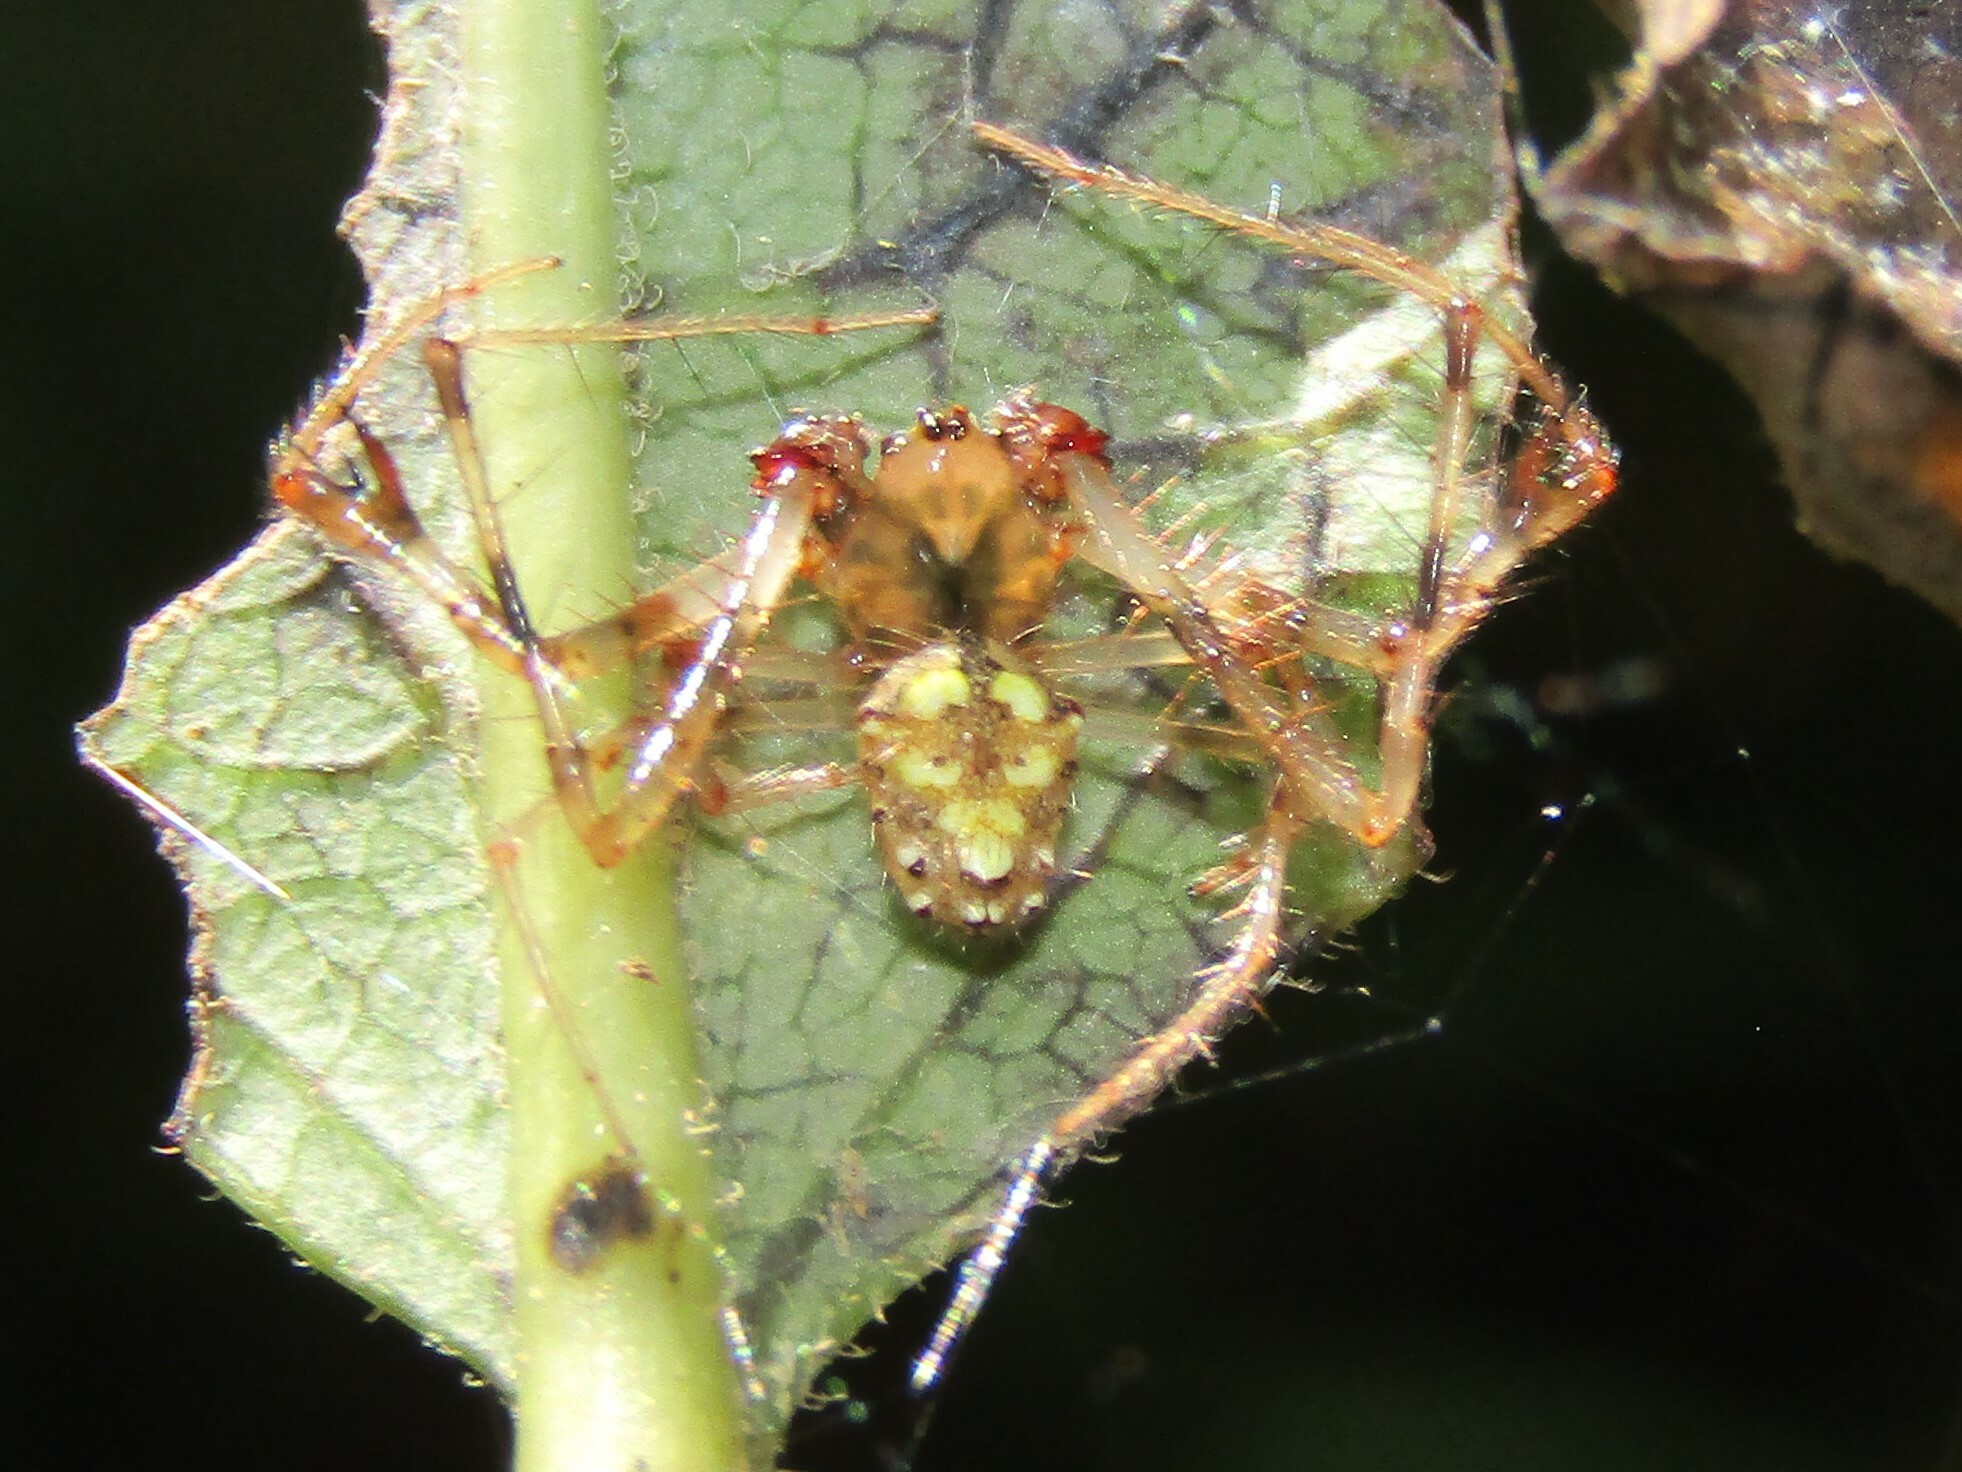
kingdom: Animalia
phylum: Arthropoda
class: Arachnida
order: Araneae
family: Araneidae
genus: Verrucosa
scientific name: Verrucosa arenata
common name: Orb weavers
